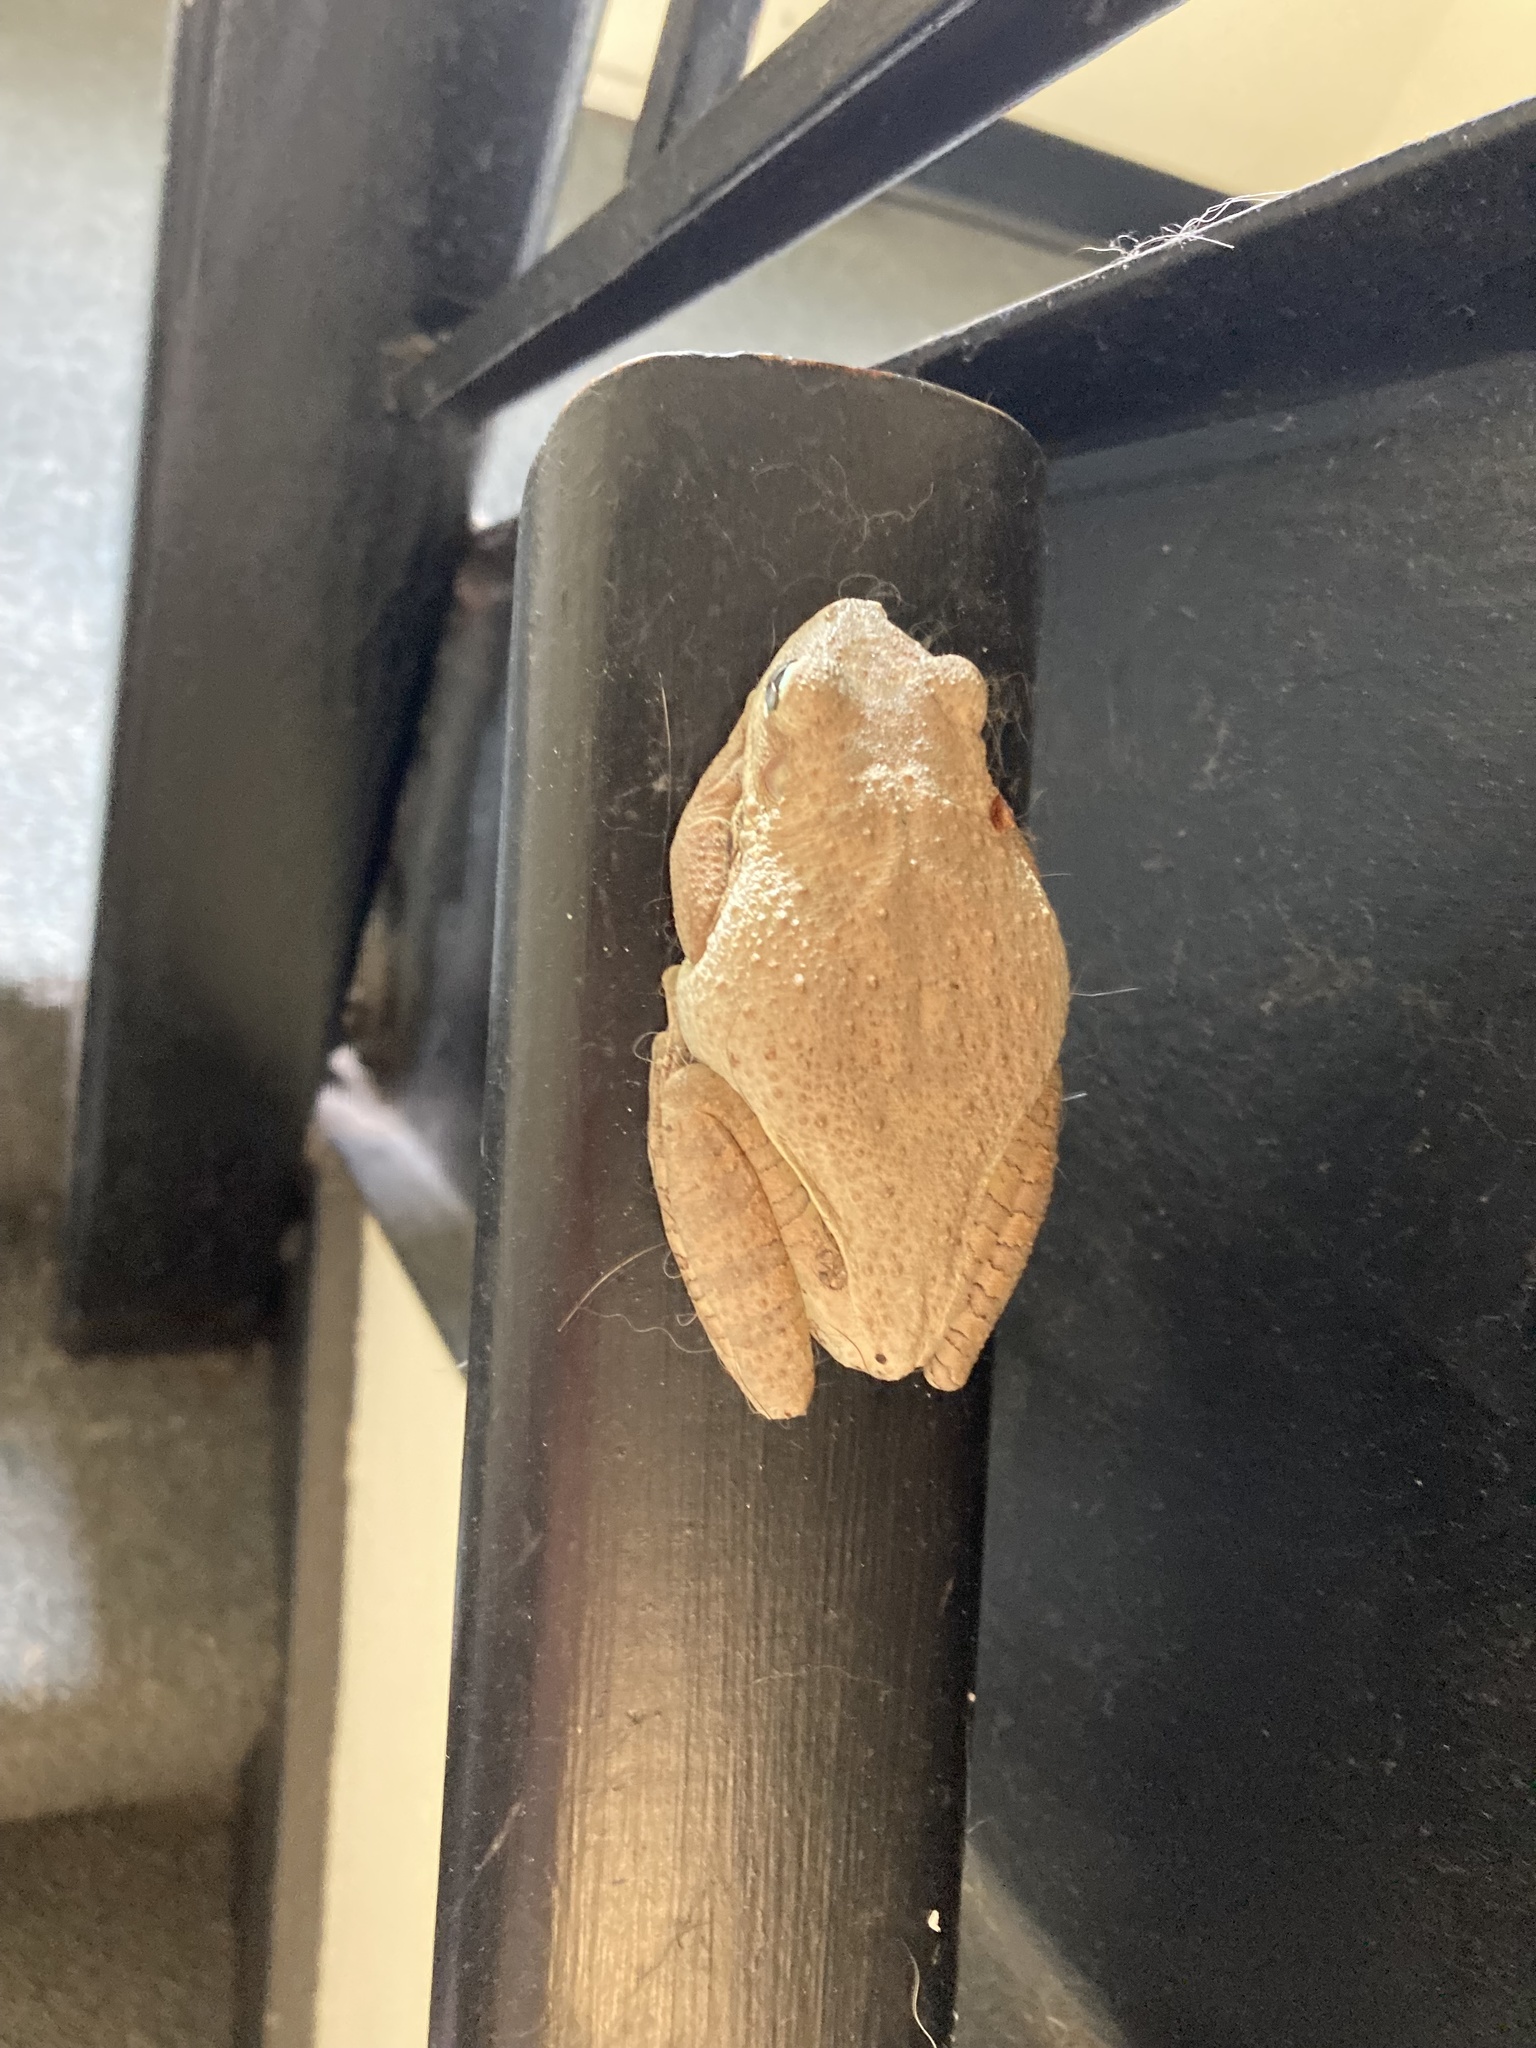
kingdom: Animalia
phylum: Chordata
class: Amphibia
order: Anura
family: Hylidae
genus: Osteopilus
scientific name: Osteopilus septentrionalis
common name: Cuban treefrog
